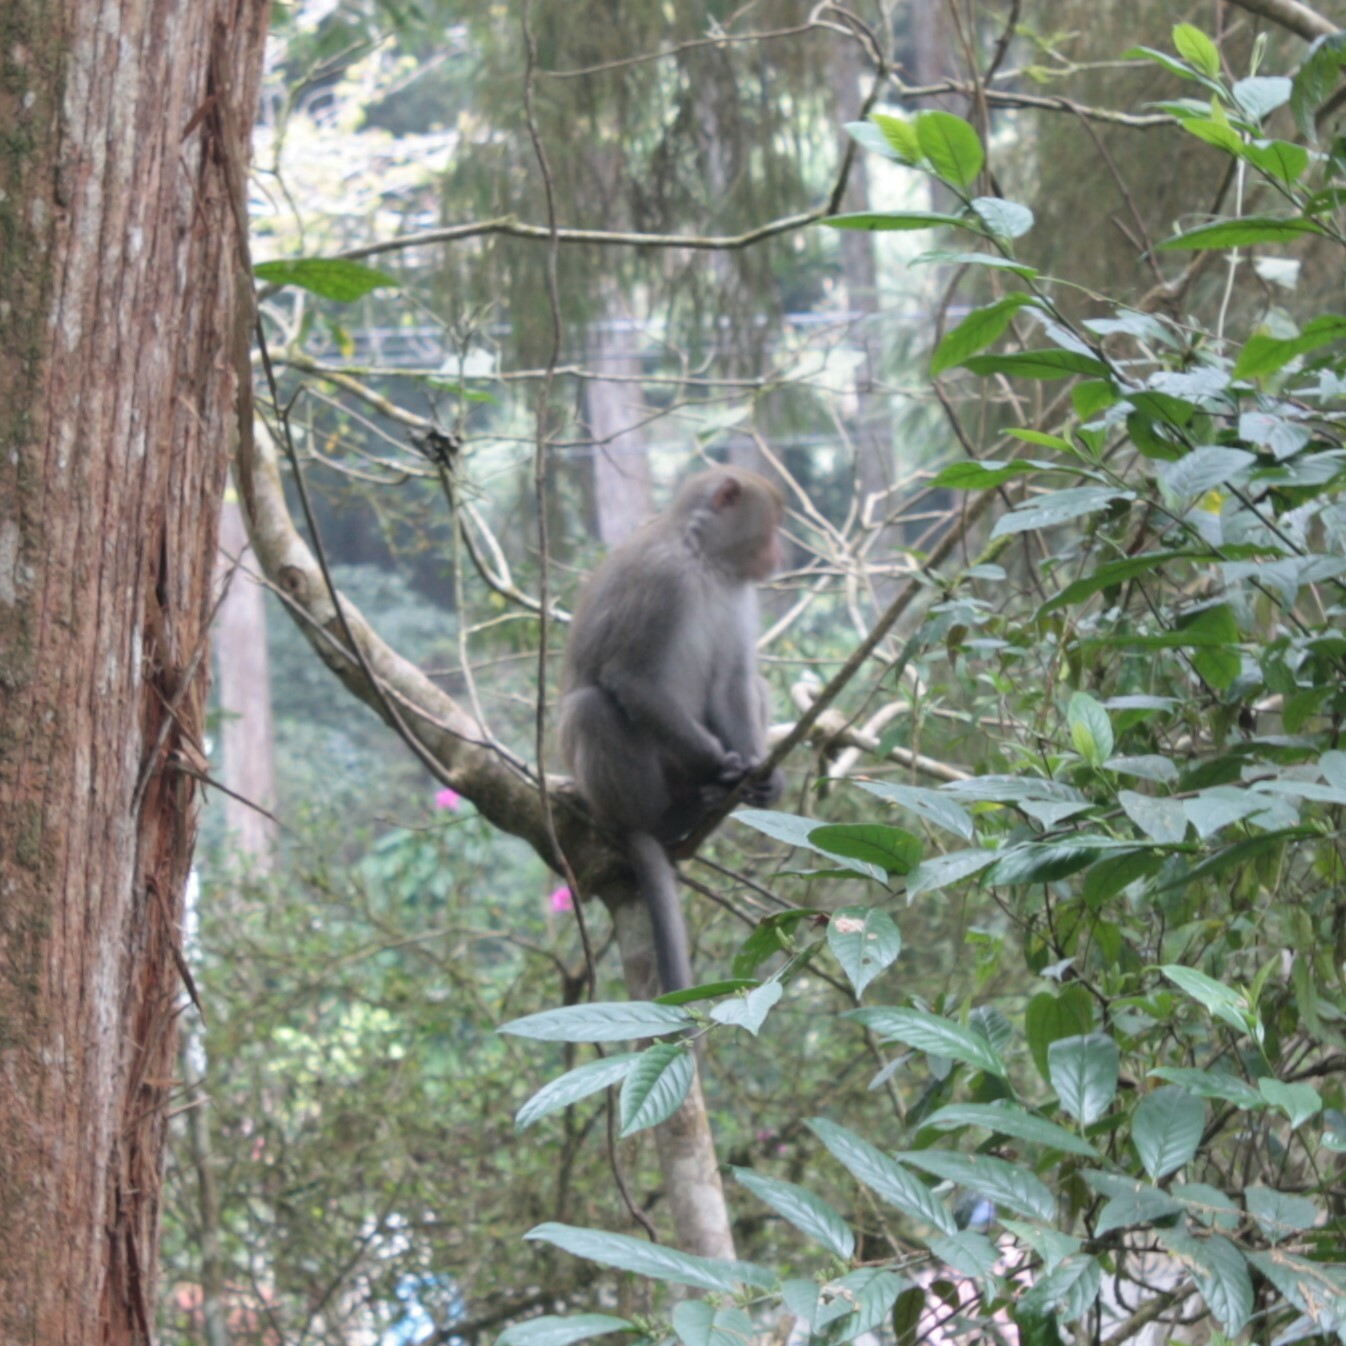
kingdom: Animalia
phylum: Chordata
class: Mammalia
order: Primates
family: Cercopithecidae
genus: Macaca
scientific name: Macaca cyclopis
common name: Formosan rock macaque
